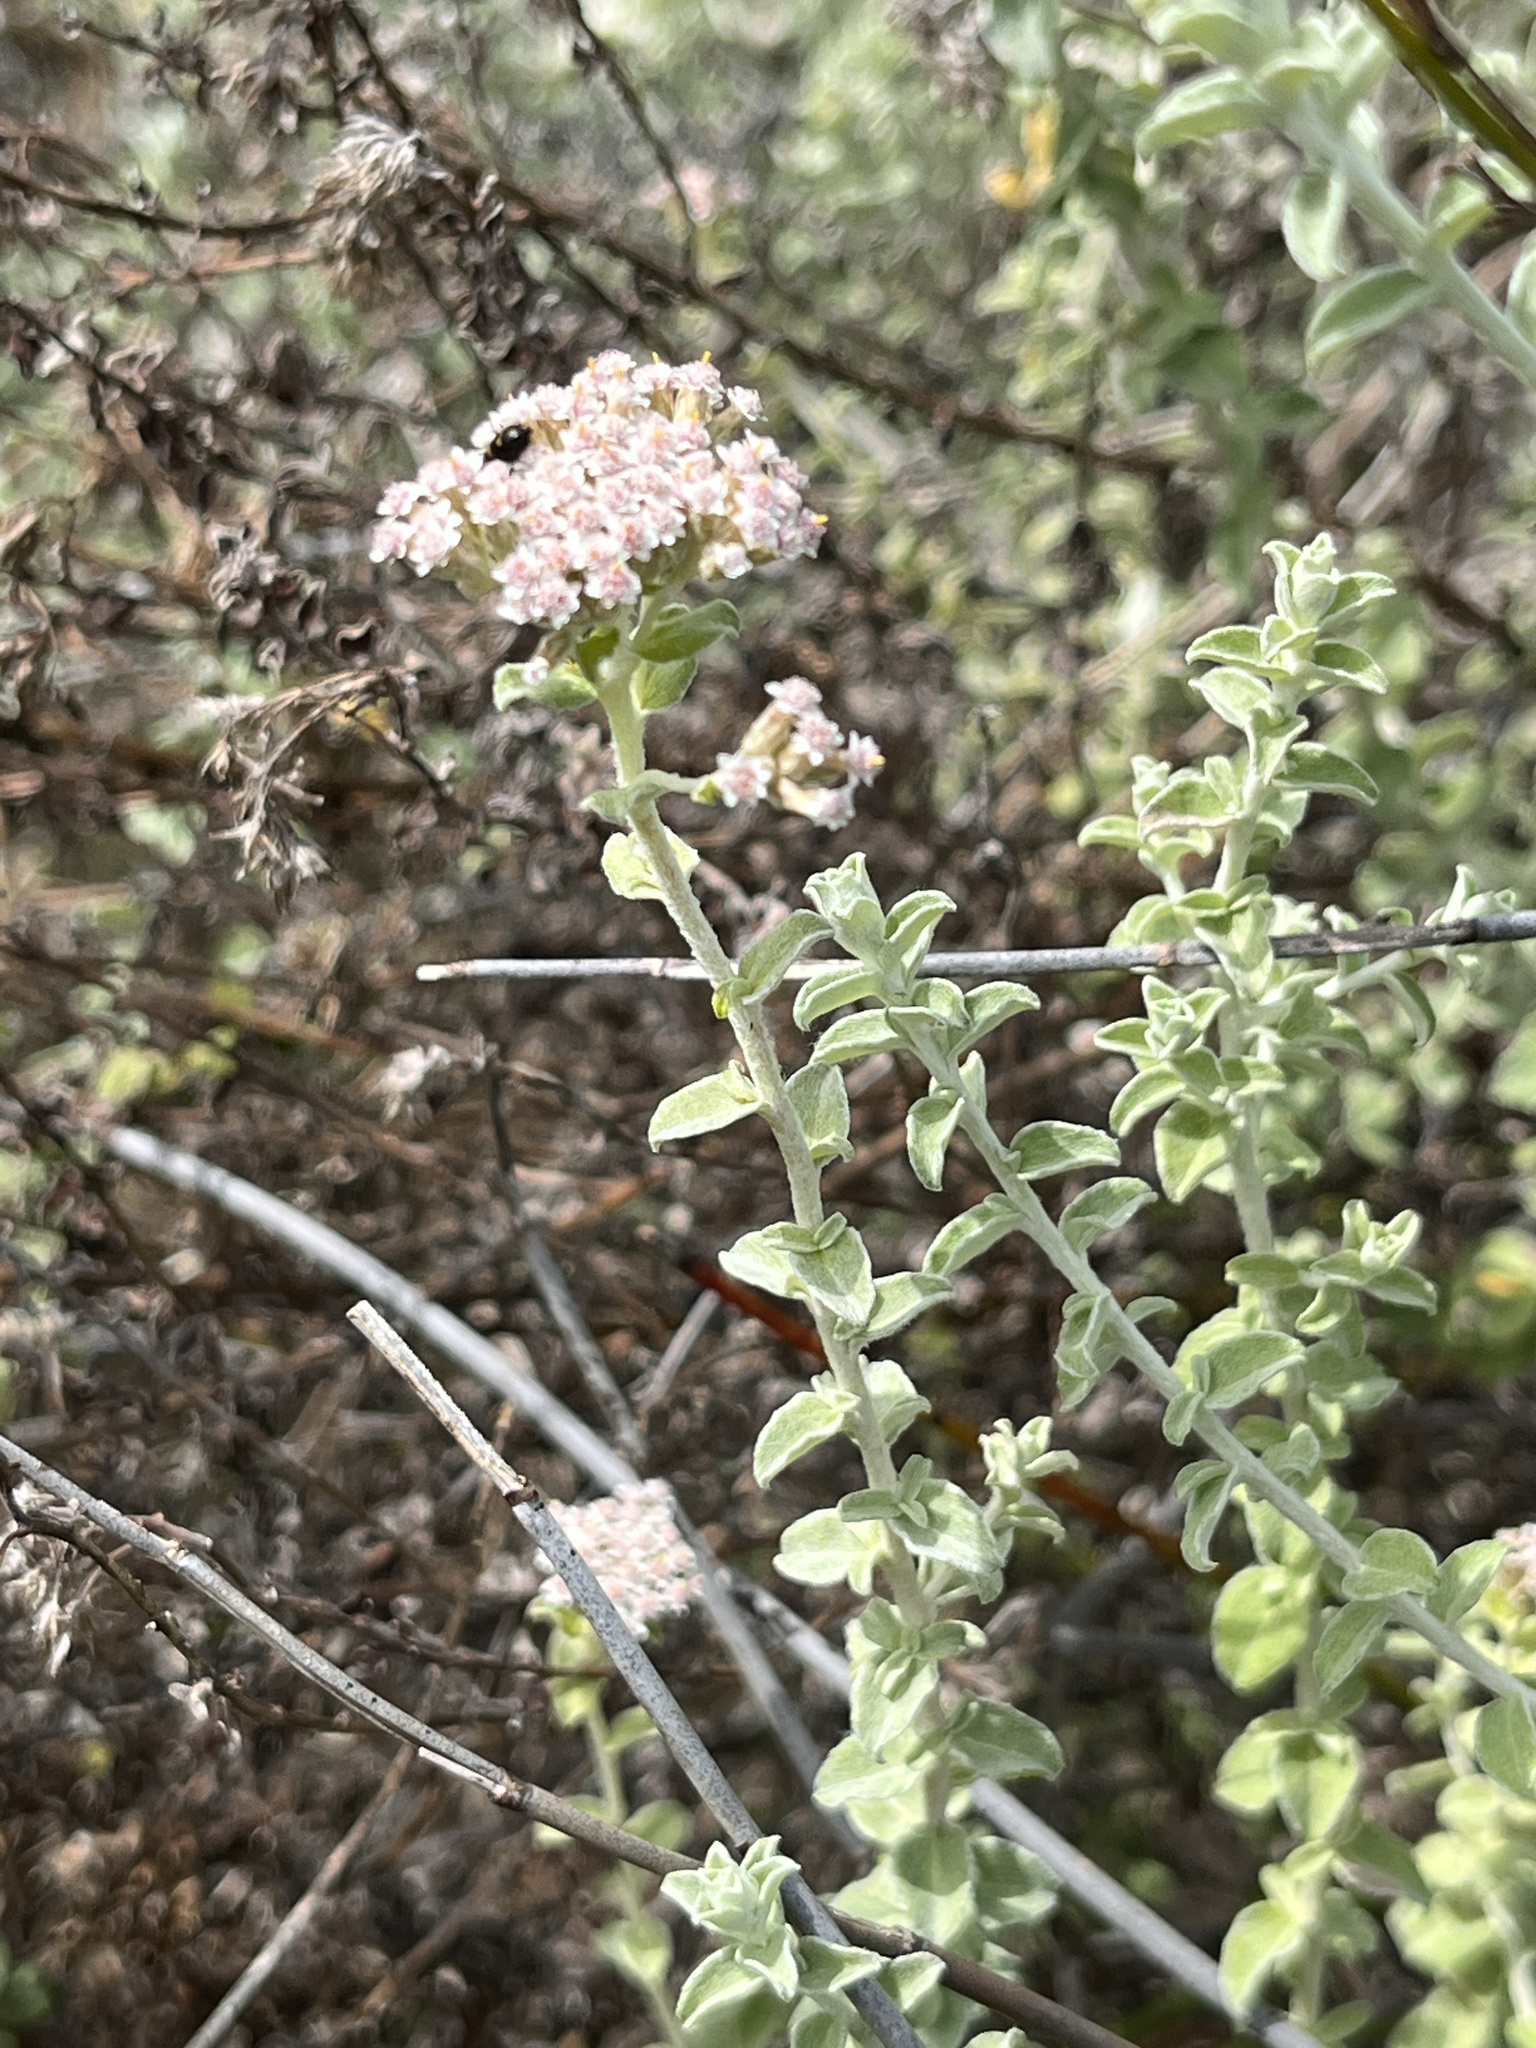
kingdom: Plantae
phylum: Tracheophyta
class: Magnoliopsida
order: Asterales
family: Asteraceae
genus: Plecostachys
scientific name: Plecostachys serpyllifolia
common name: Petite licorice
